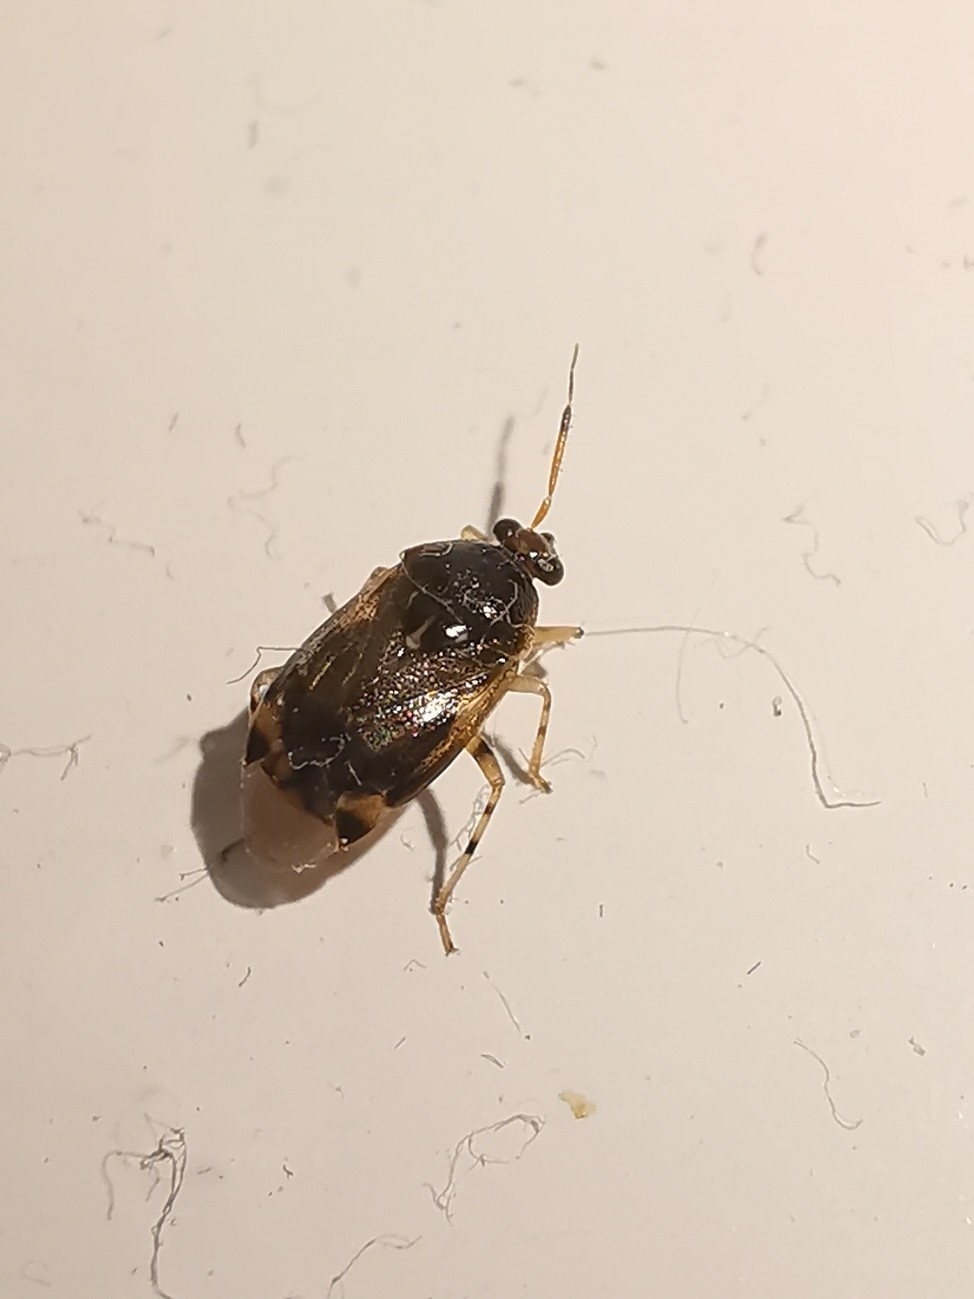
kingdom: Animalia
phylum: Arthropoda
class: Insecta
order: Hemiptera
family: Miridae
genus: Deraeocoris
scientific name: Deraeocoris lutescens
